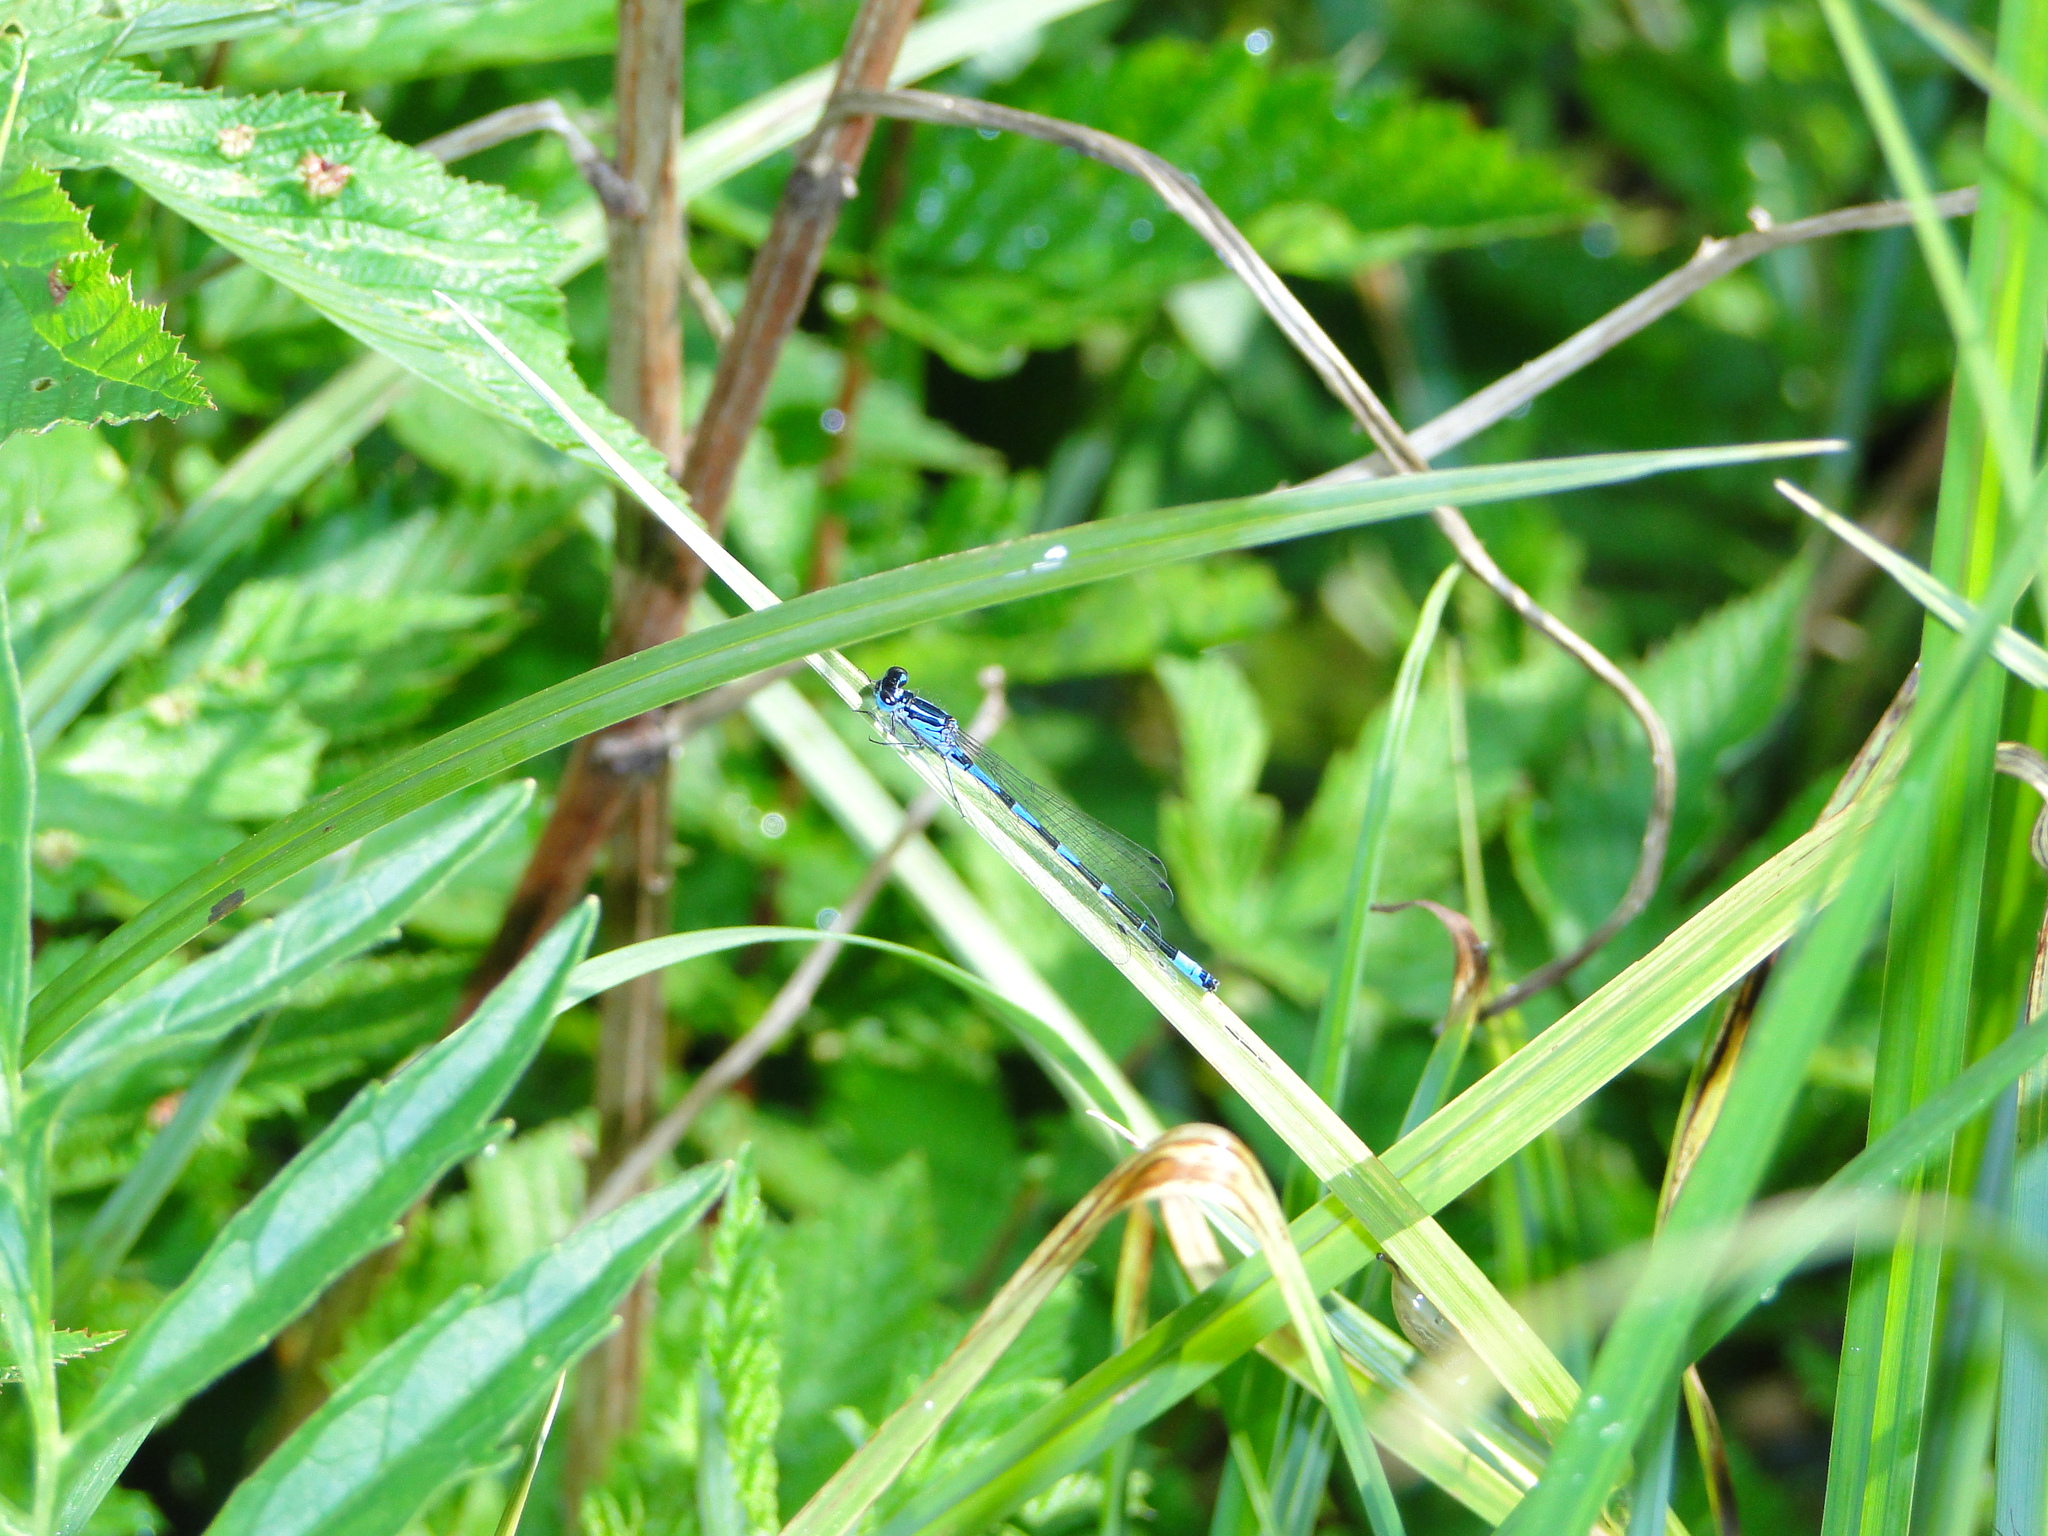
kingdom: Animalia
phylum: Arthropoda
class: Insecta
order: Odonata
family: Coenagrionidae
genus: Coenagrion
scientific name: Coenagrion pulchellum
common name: Variable bluet
